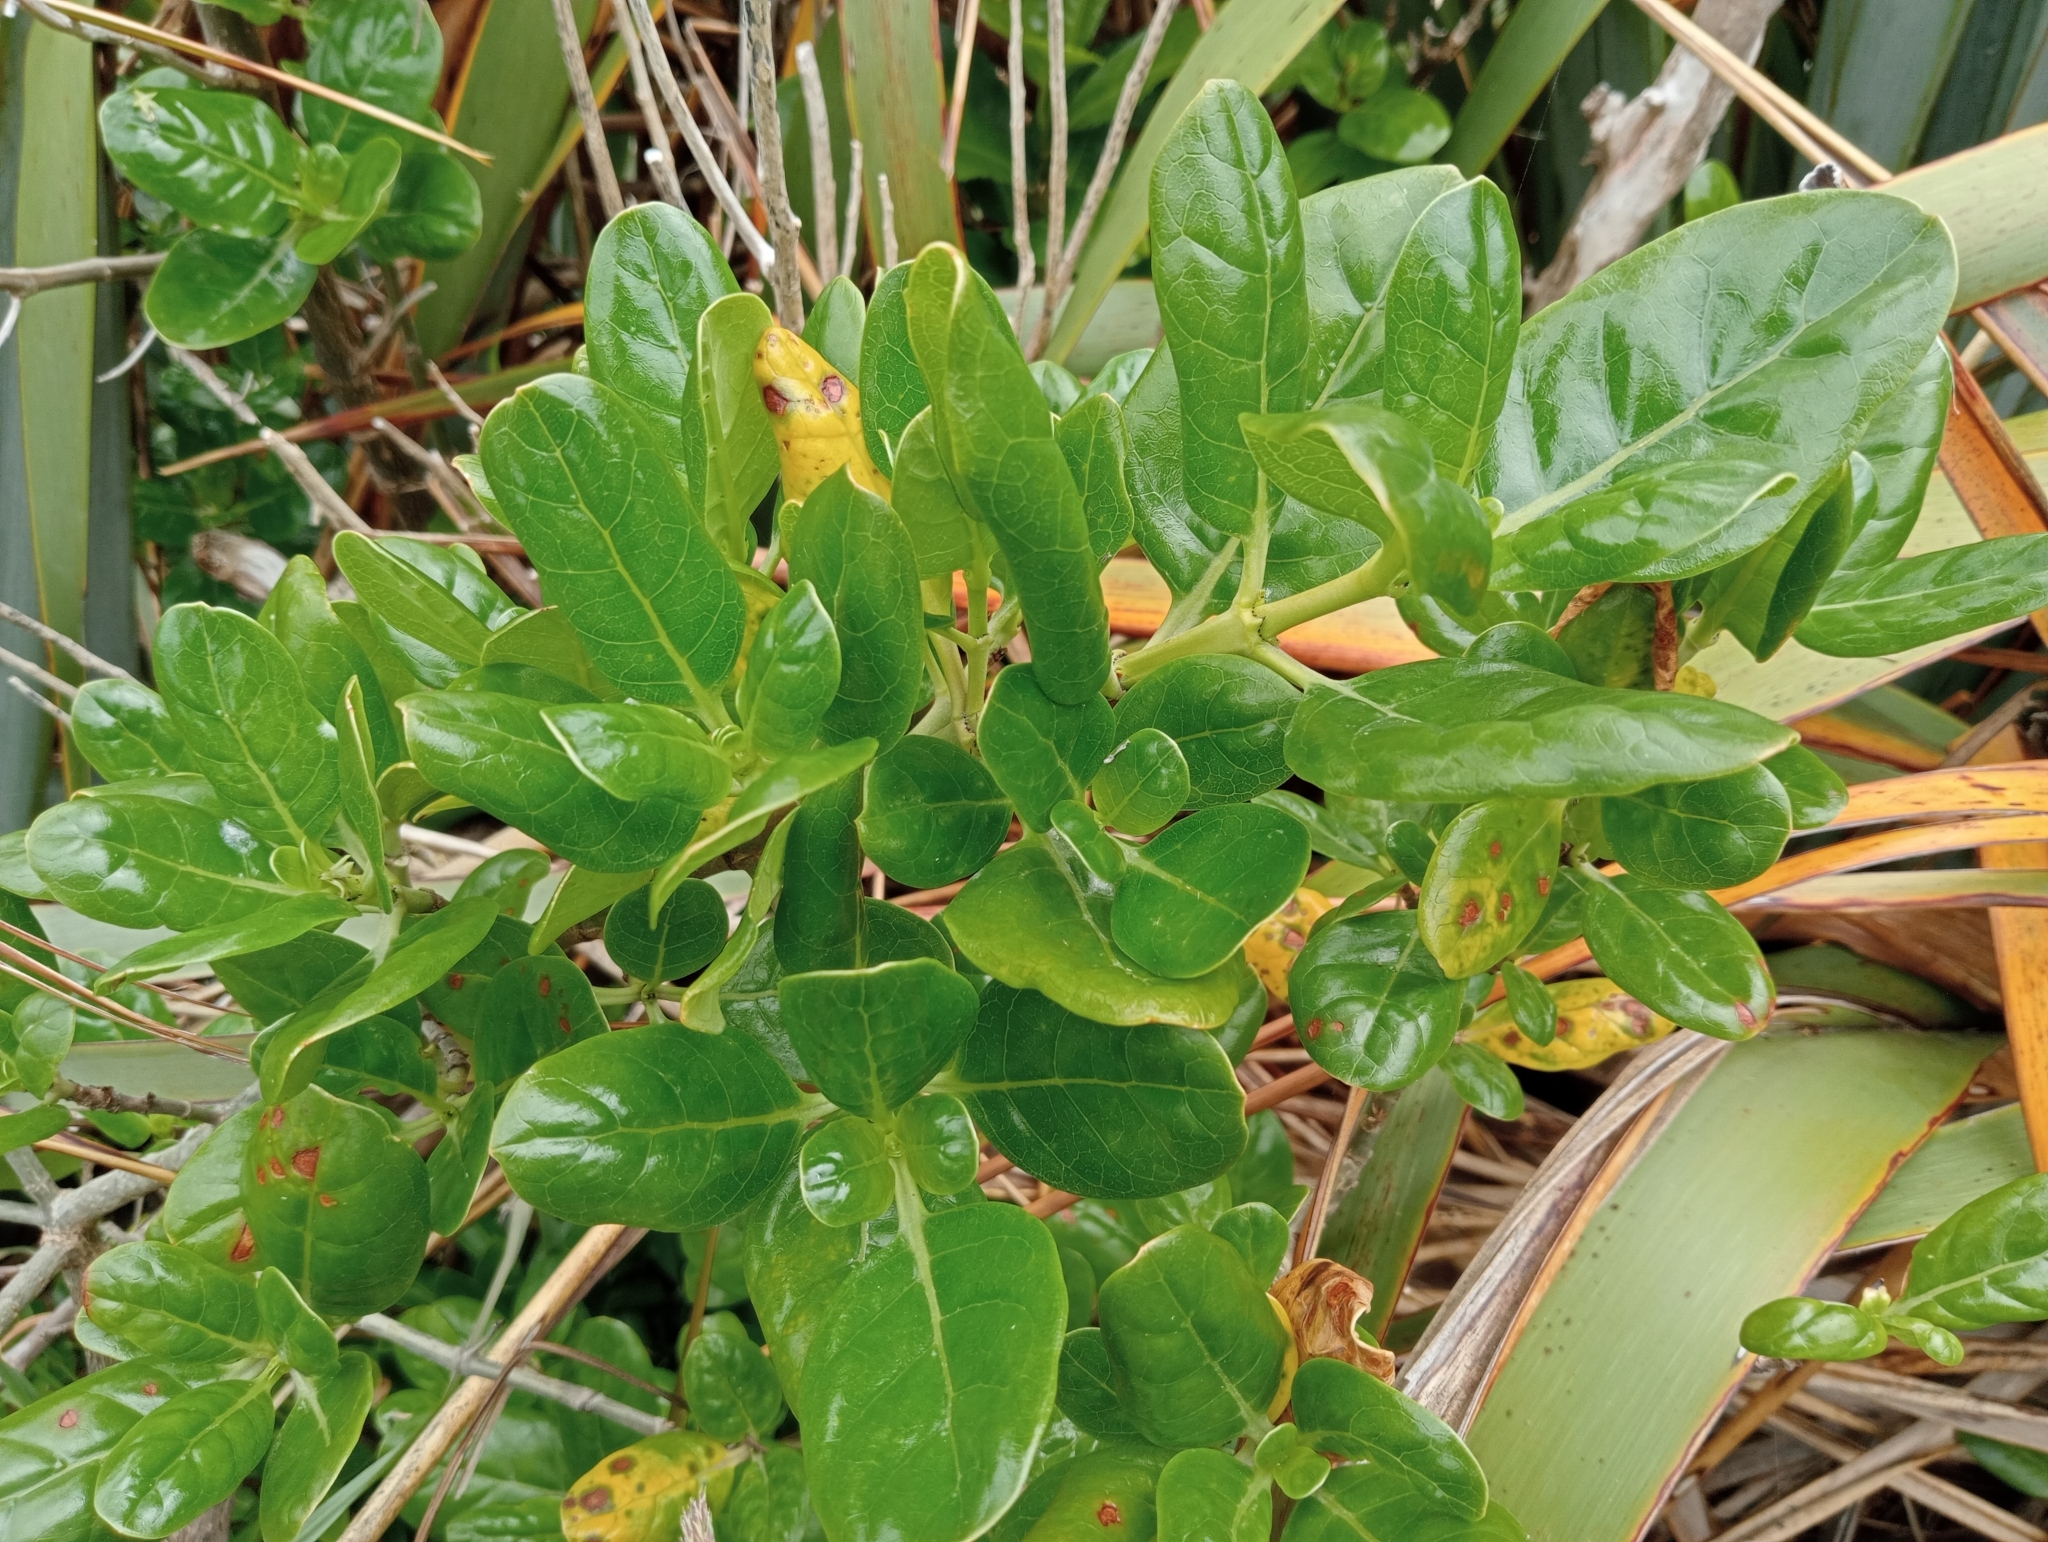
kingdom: Plantae
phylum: Tracheophyta
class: Magnoliopsida
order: Gentianales
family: Rubiaceae
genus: Coprosma
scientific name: Coprosma repens
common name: Tree bedstraw
